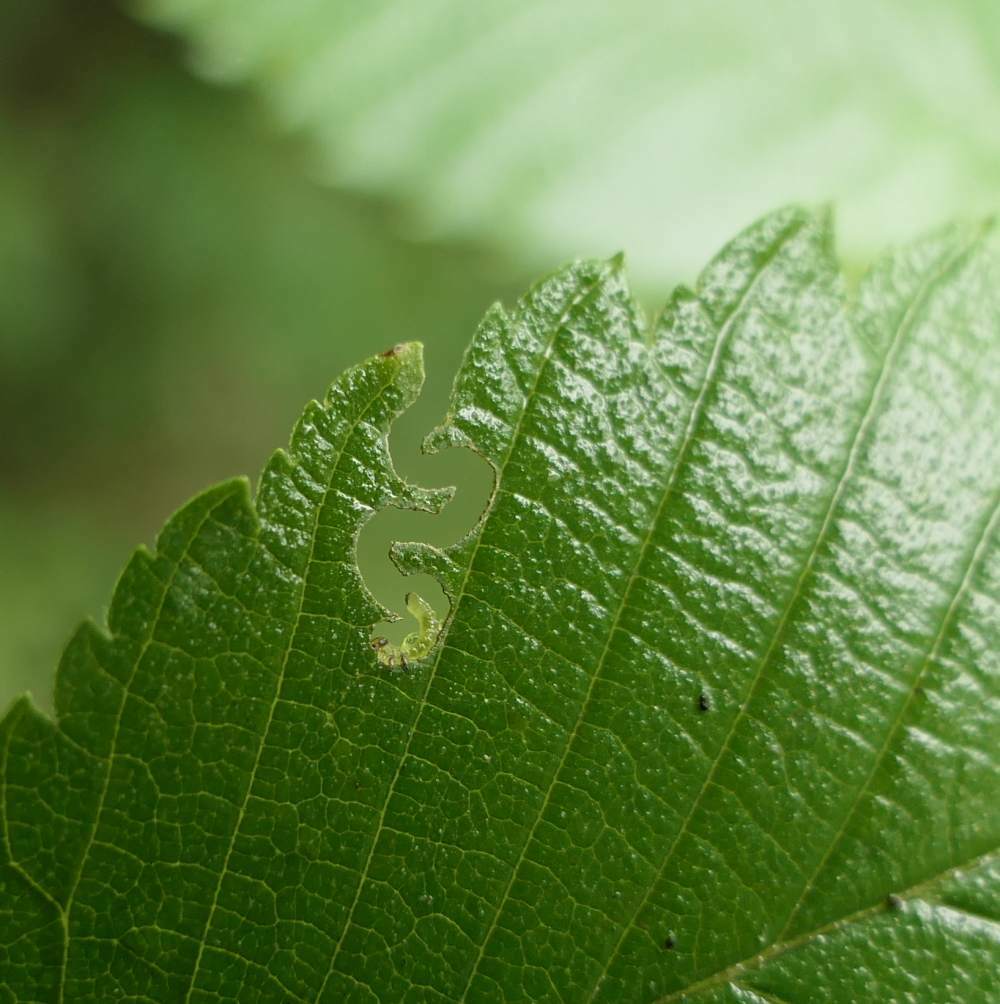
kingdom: Animalia
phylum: Arthropoda
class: Insecta
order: Hymenoptera
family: Argidae
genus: Aproceros
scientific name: Aproceros leucopoda
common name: Zig-zag elm sawfly
